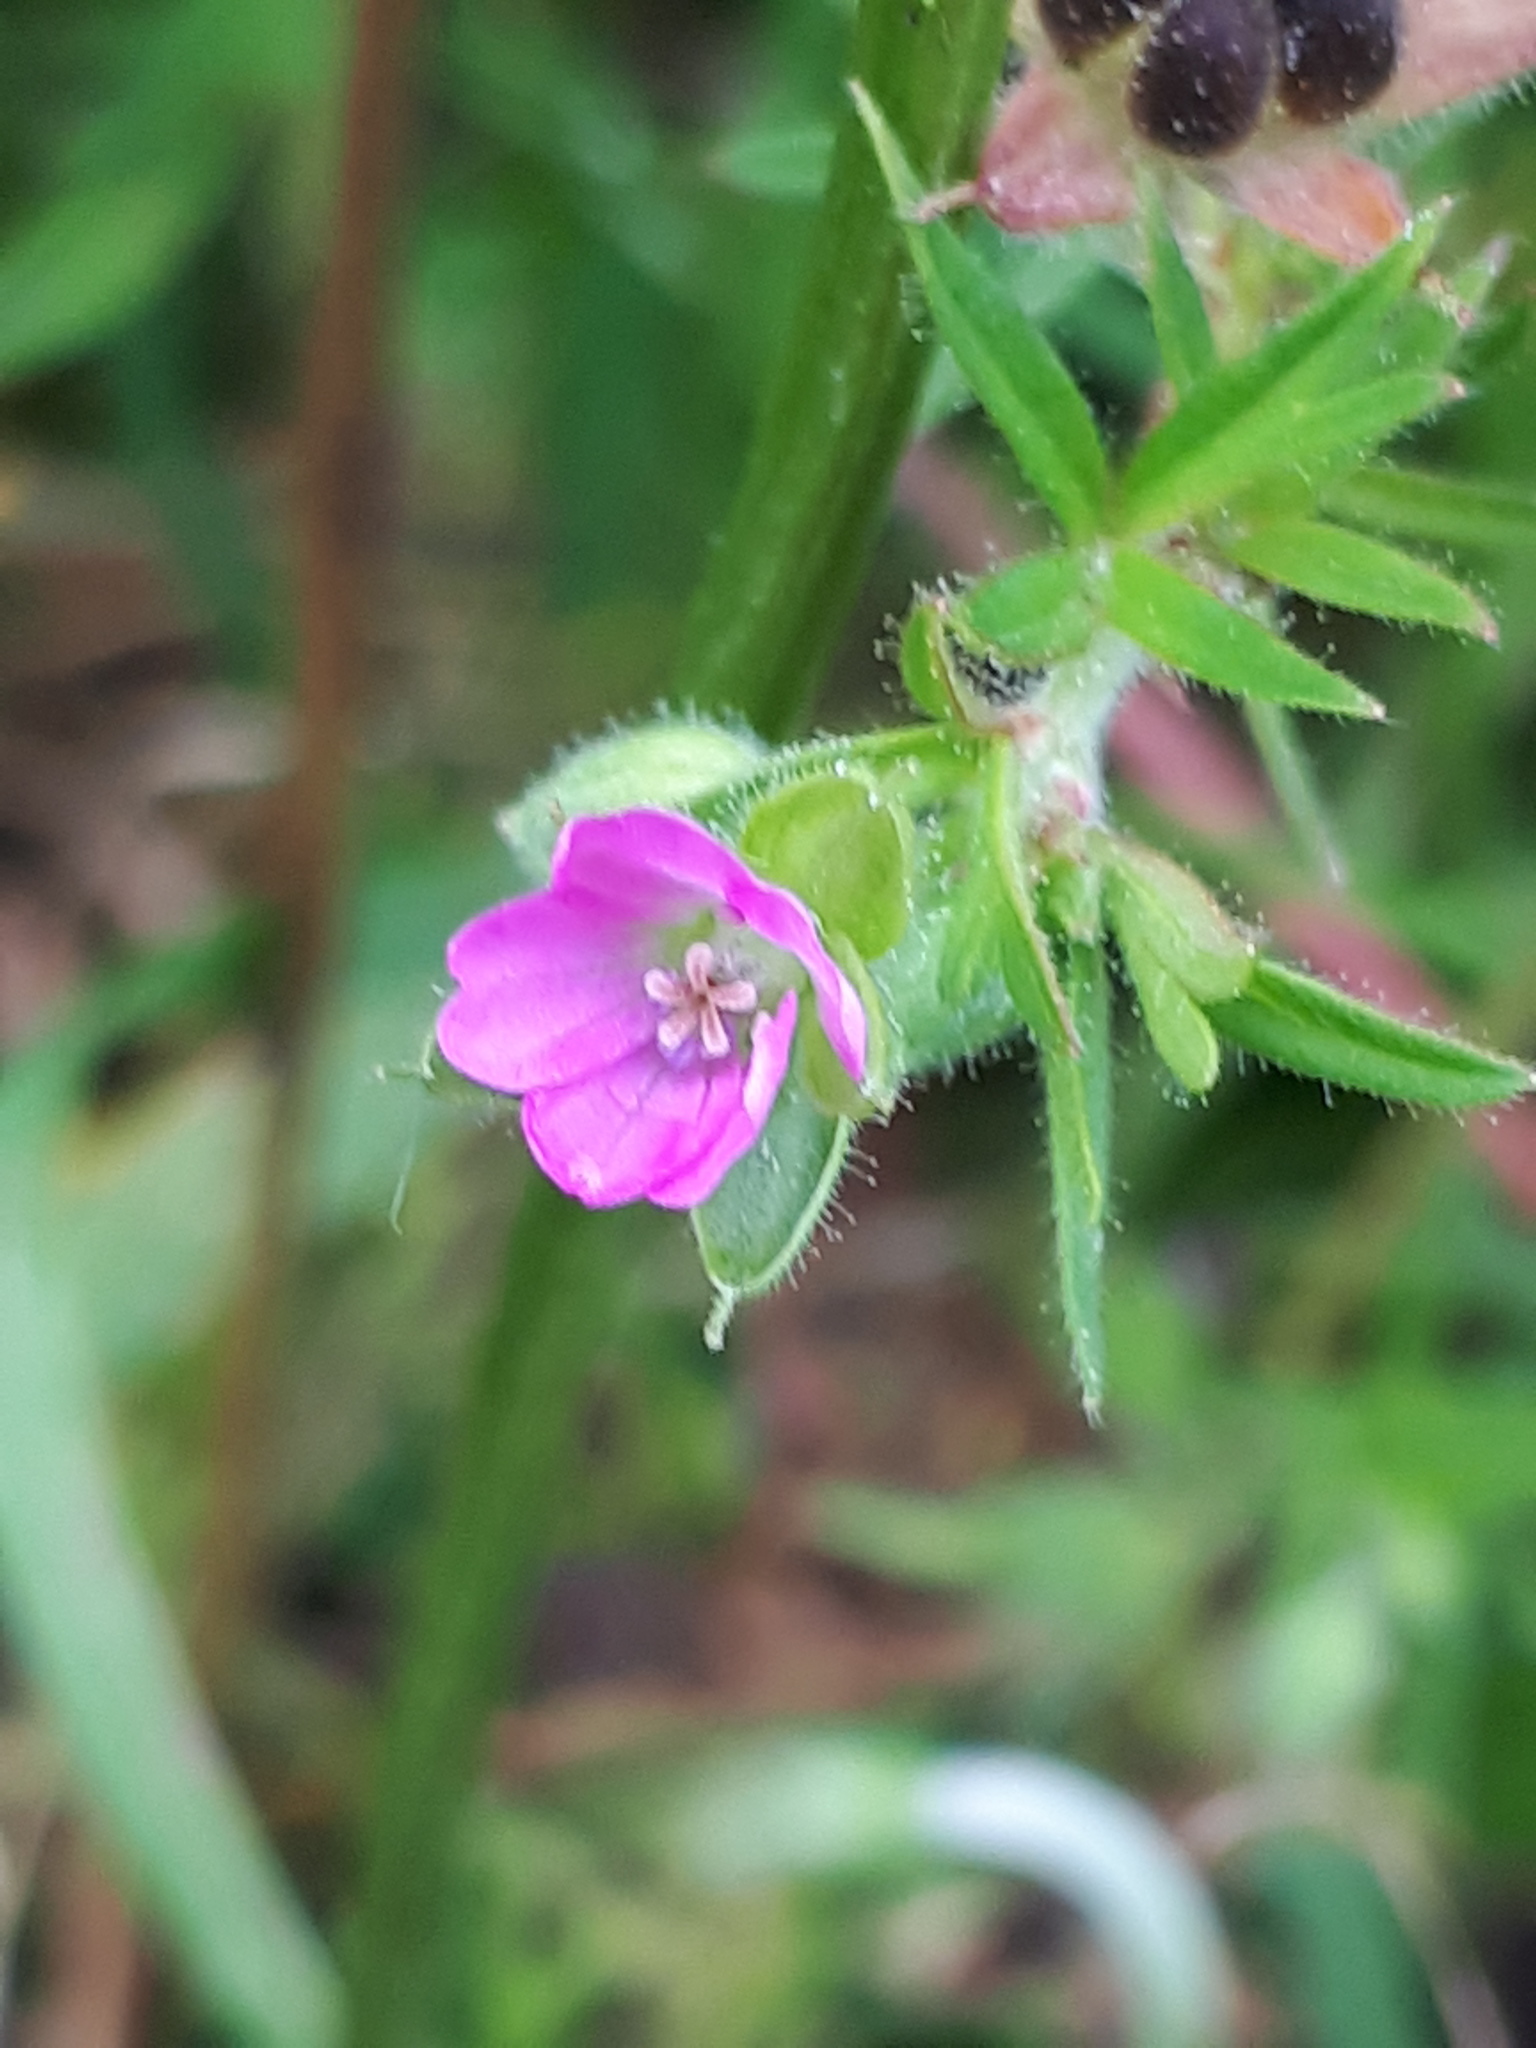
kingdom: Plantae
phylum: Tracheophyta
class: Magnoliopsida
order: Geraniales
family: Geraniaceae
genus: Geranium
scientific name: Geranium dissectum
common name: Cut-leaved crane's-bill
